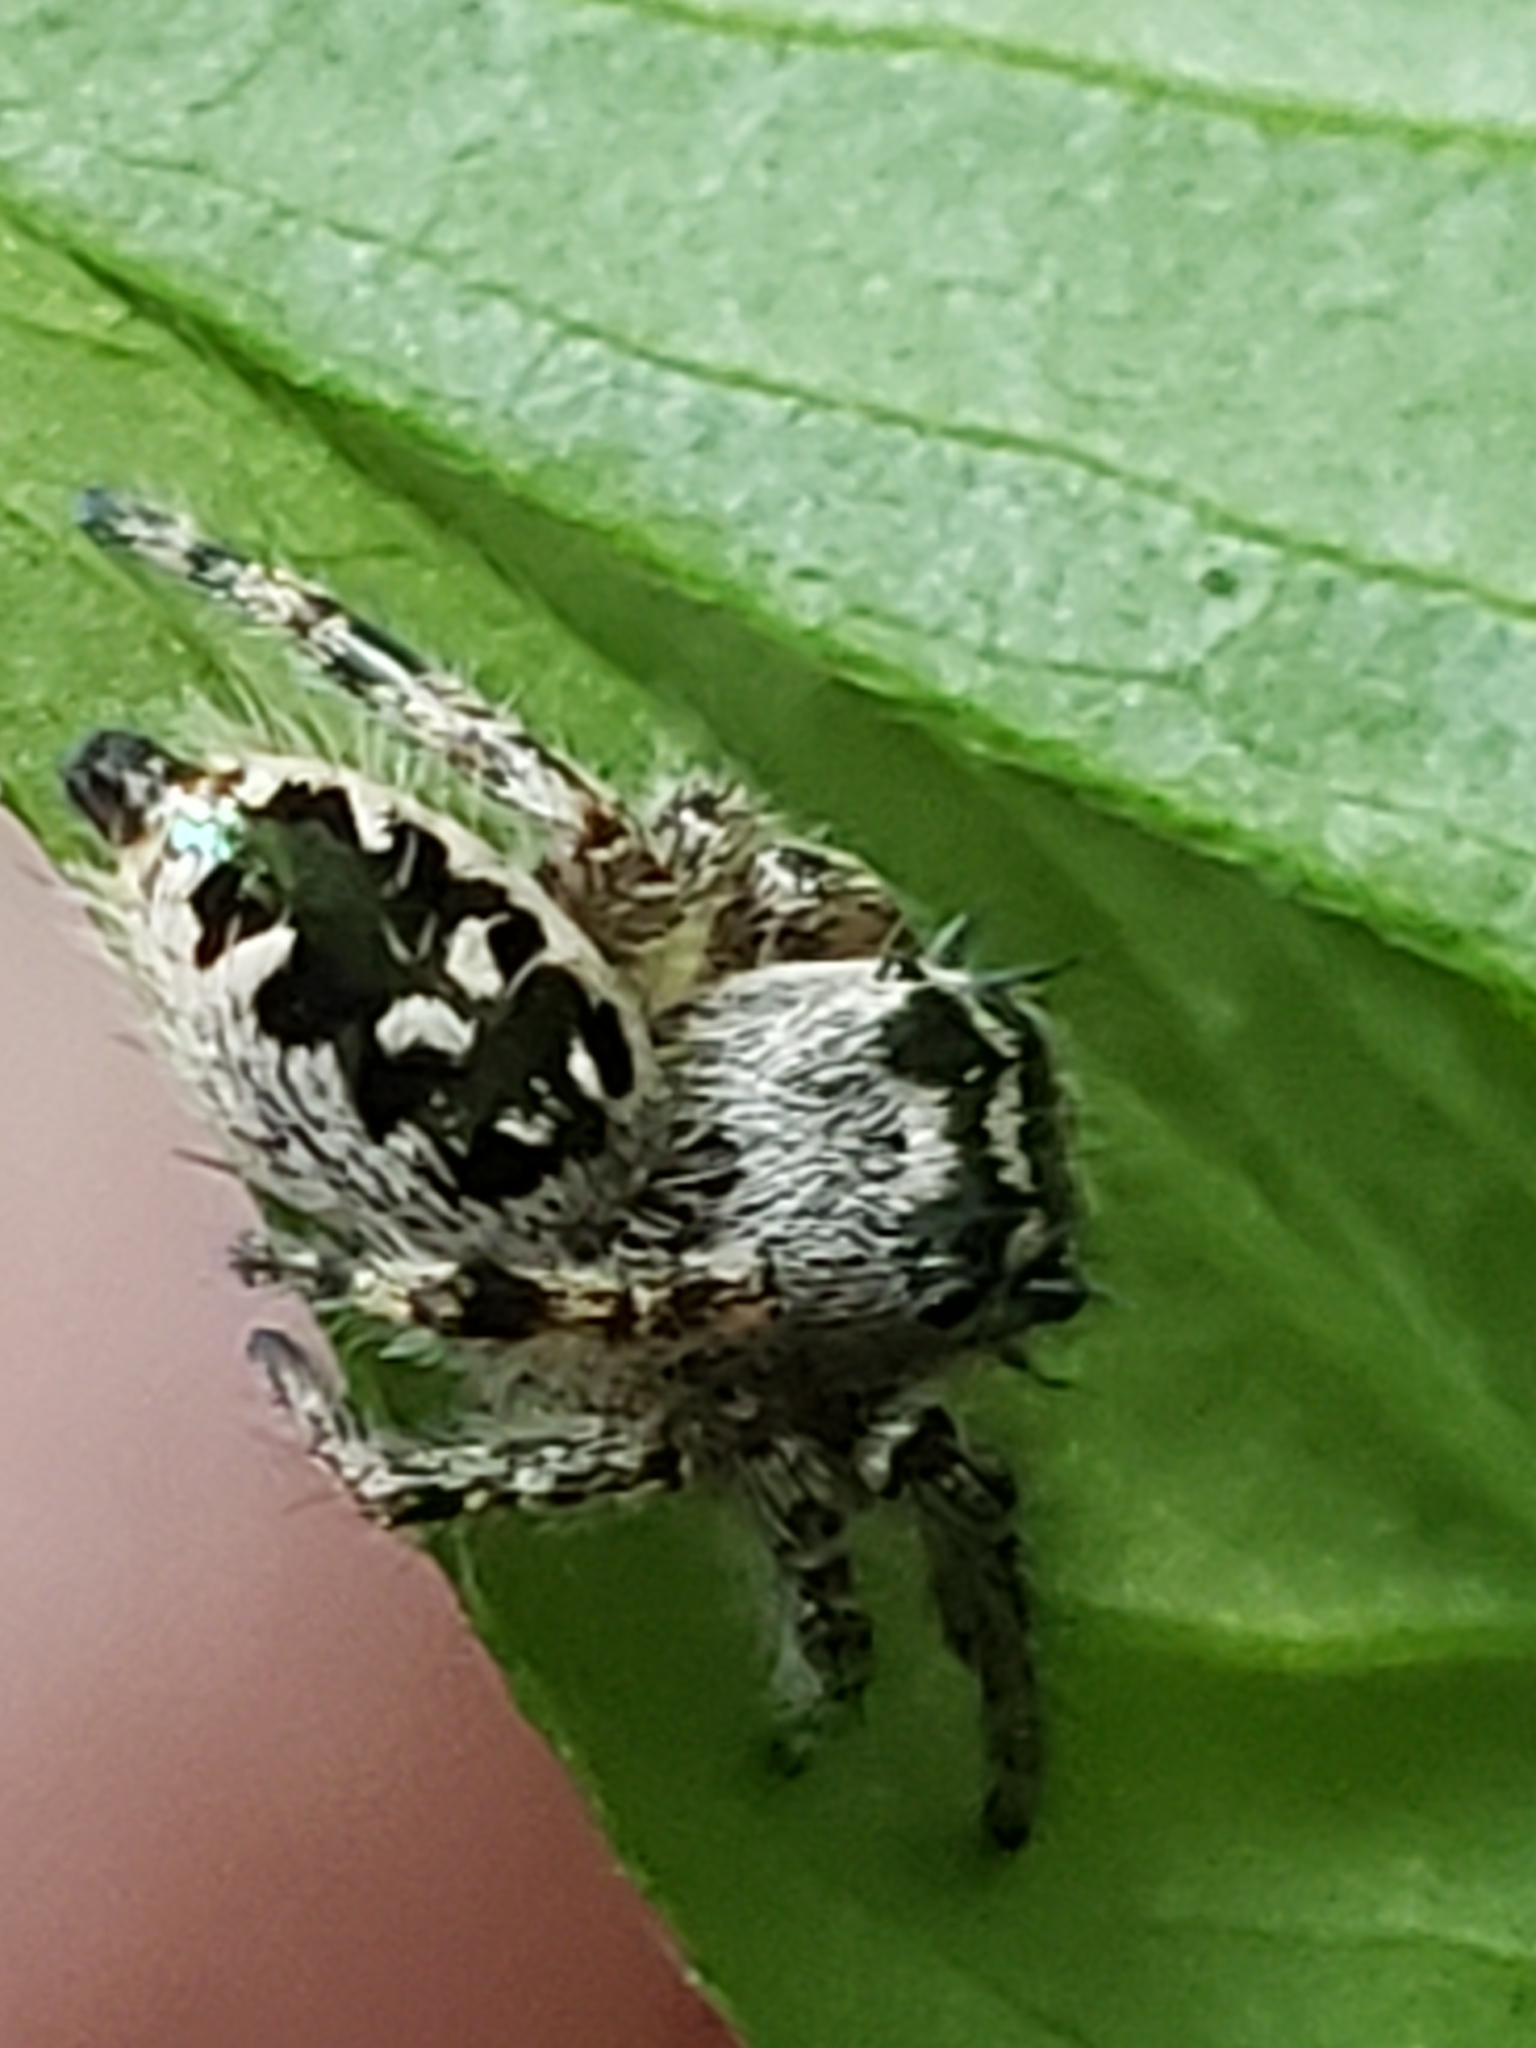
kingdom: Animalia
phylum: Arthropoda
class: Arachnida
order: Araneae
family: Salticidae
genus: Phidippus
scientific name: Phidippus otiosus
